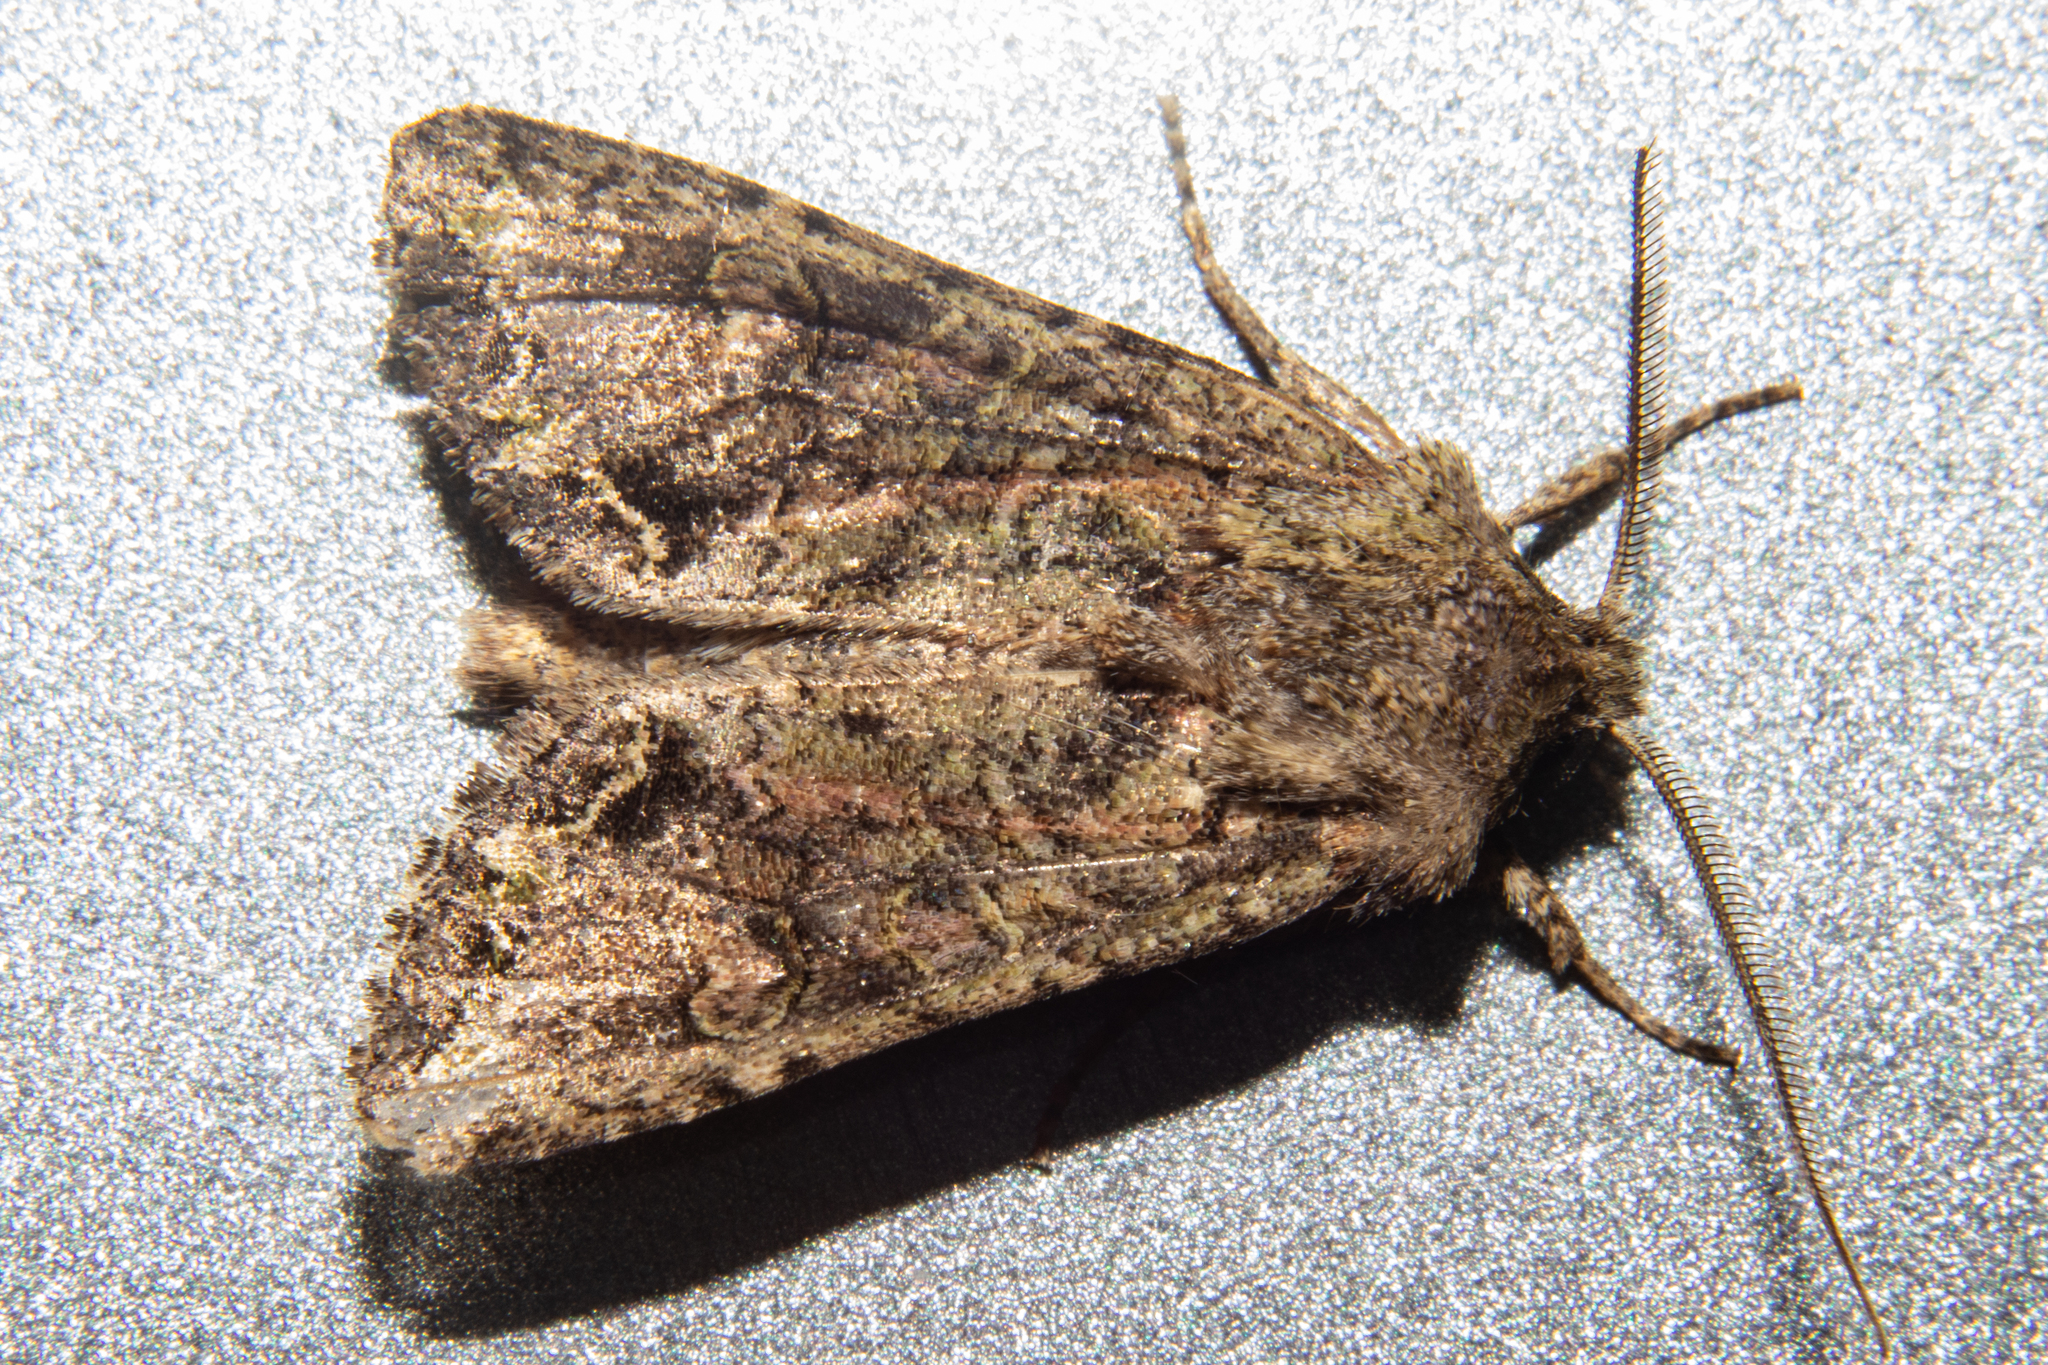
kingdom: Animalia
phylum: Arthropoda
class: Insecta
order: Lepidoptera
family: Noctuidae
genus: Ichneutica
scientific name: Ichneutica skelloni
